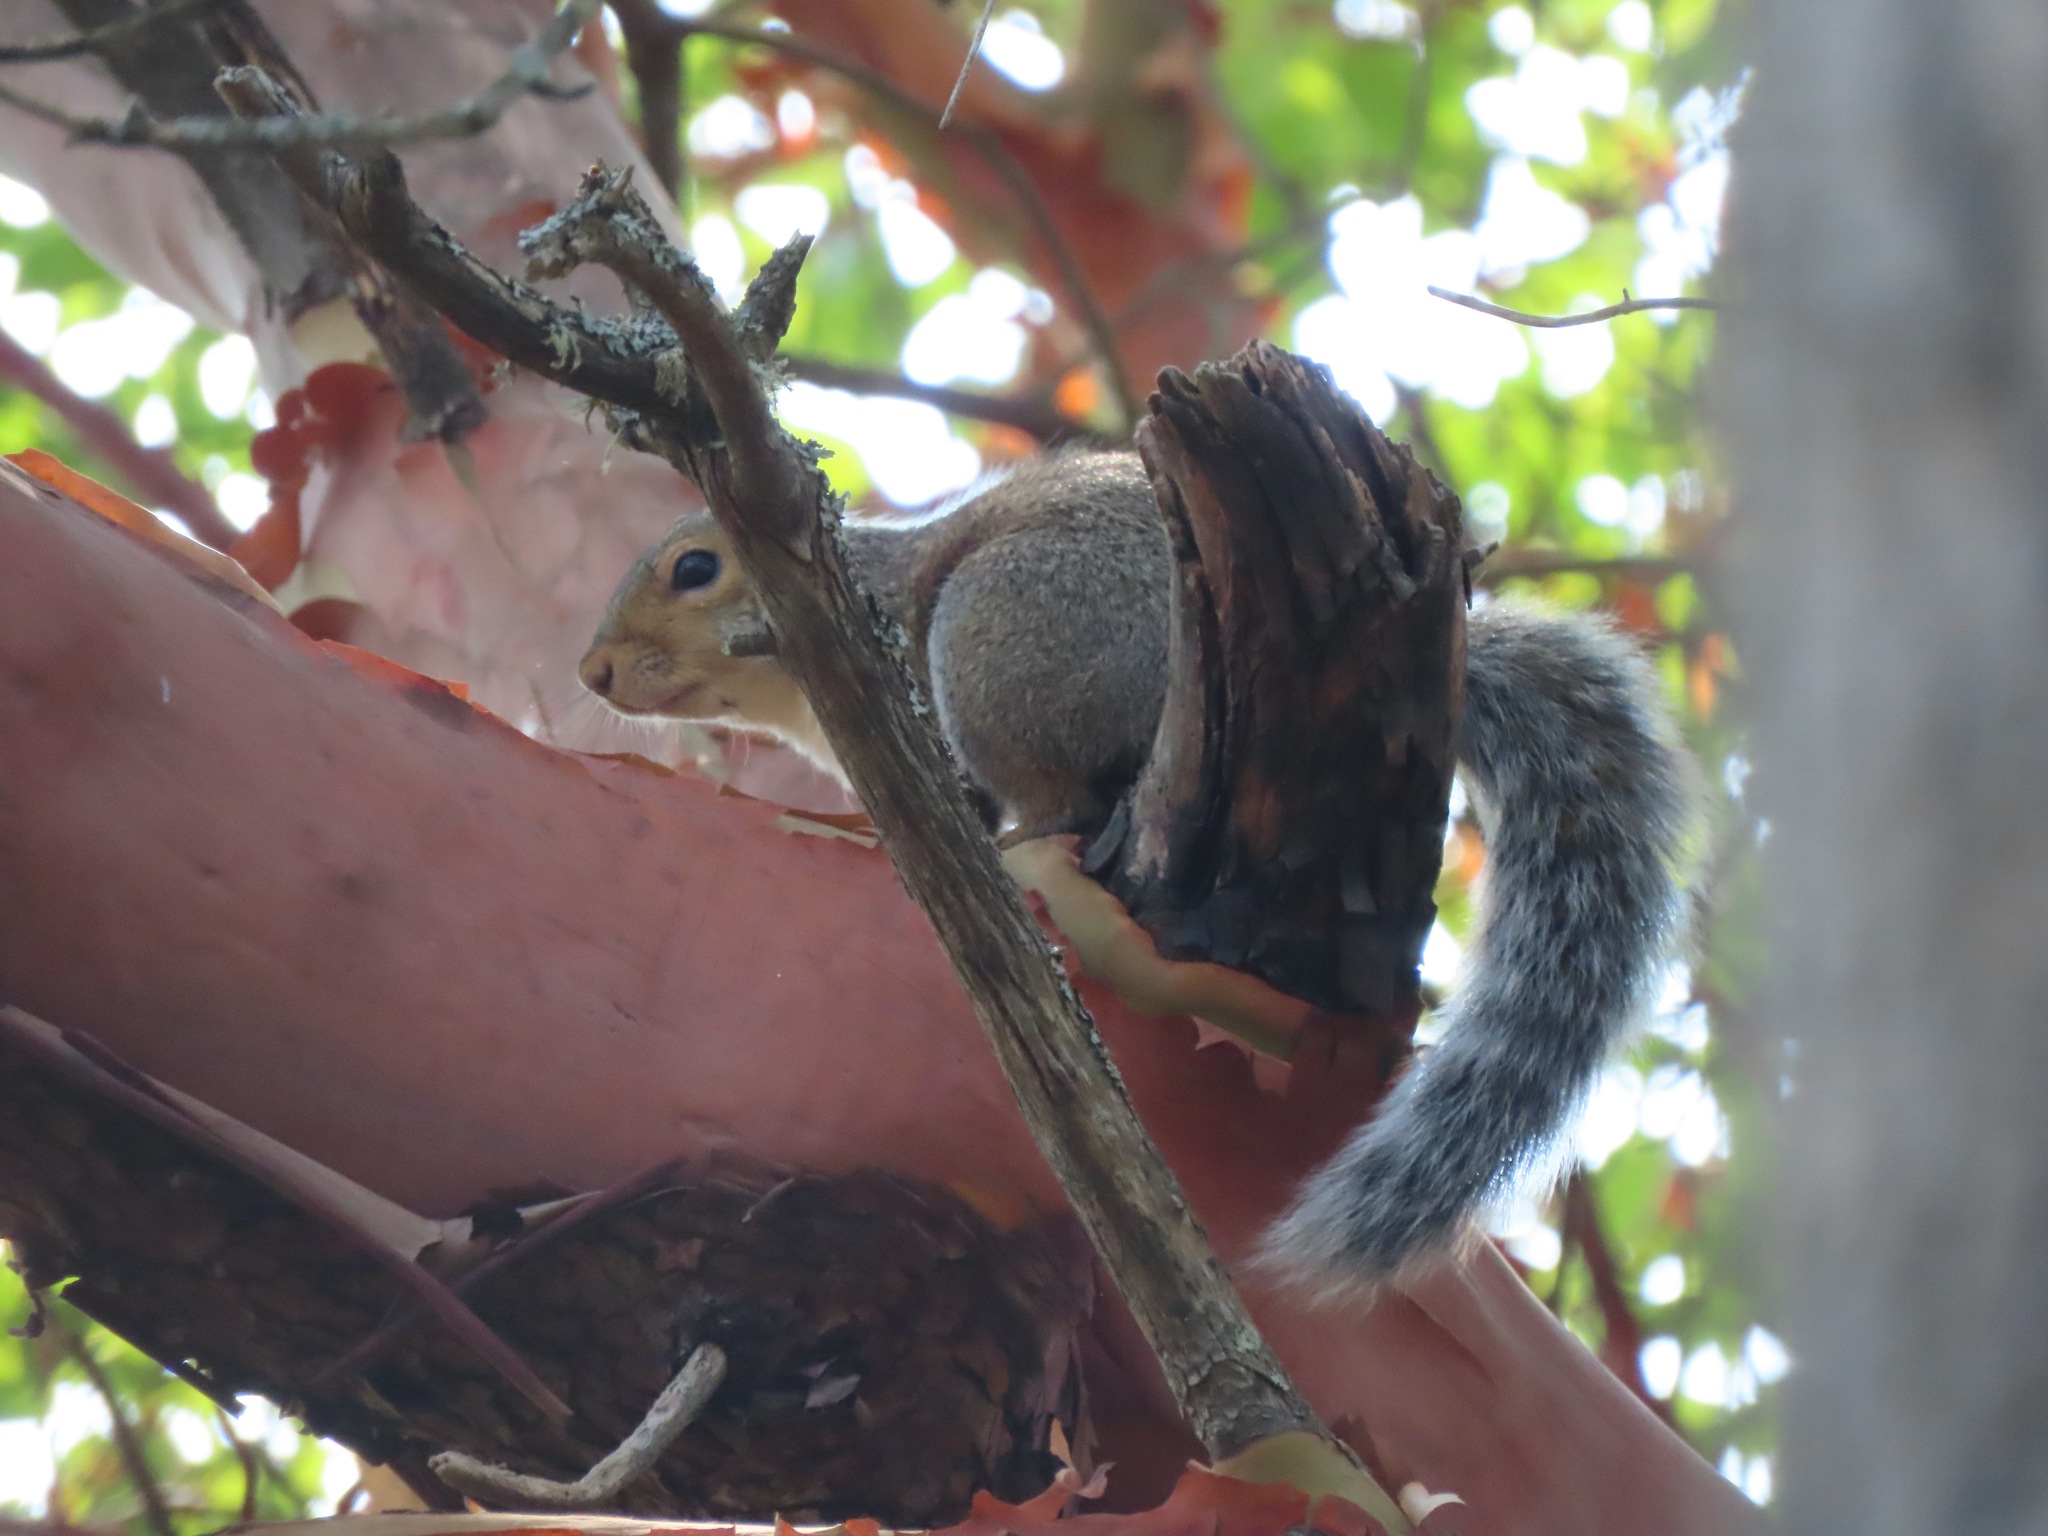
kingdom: Animalia
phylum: Chordata
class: Mammalia
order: Rodentia
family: Sciuridae
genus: Sciurus
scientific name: Sciurus carolinensis
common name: Eastern gray squirrel
